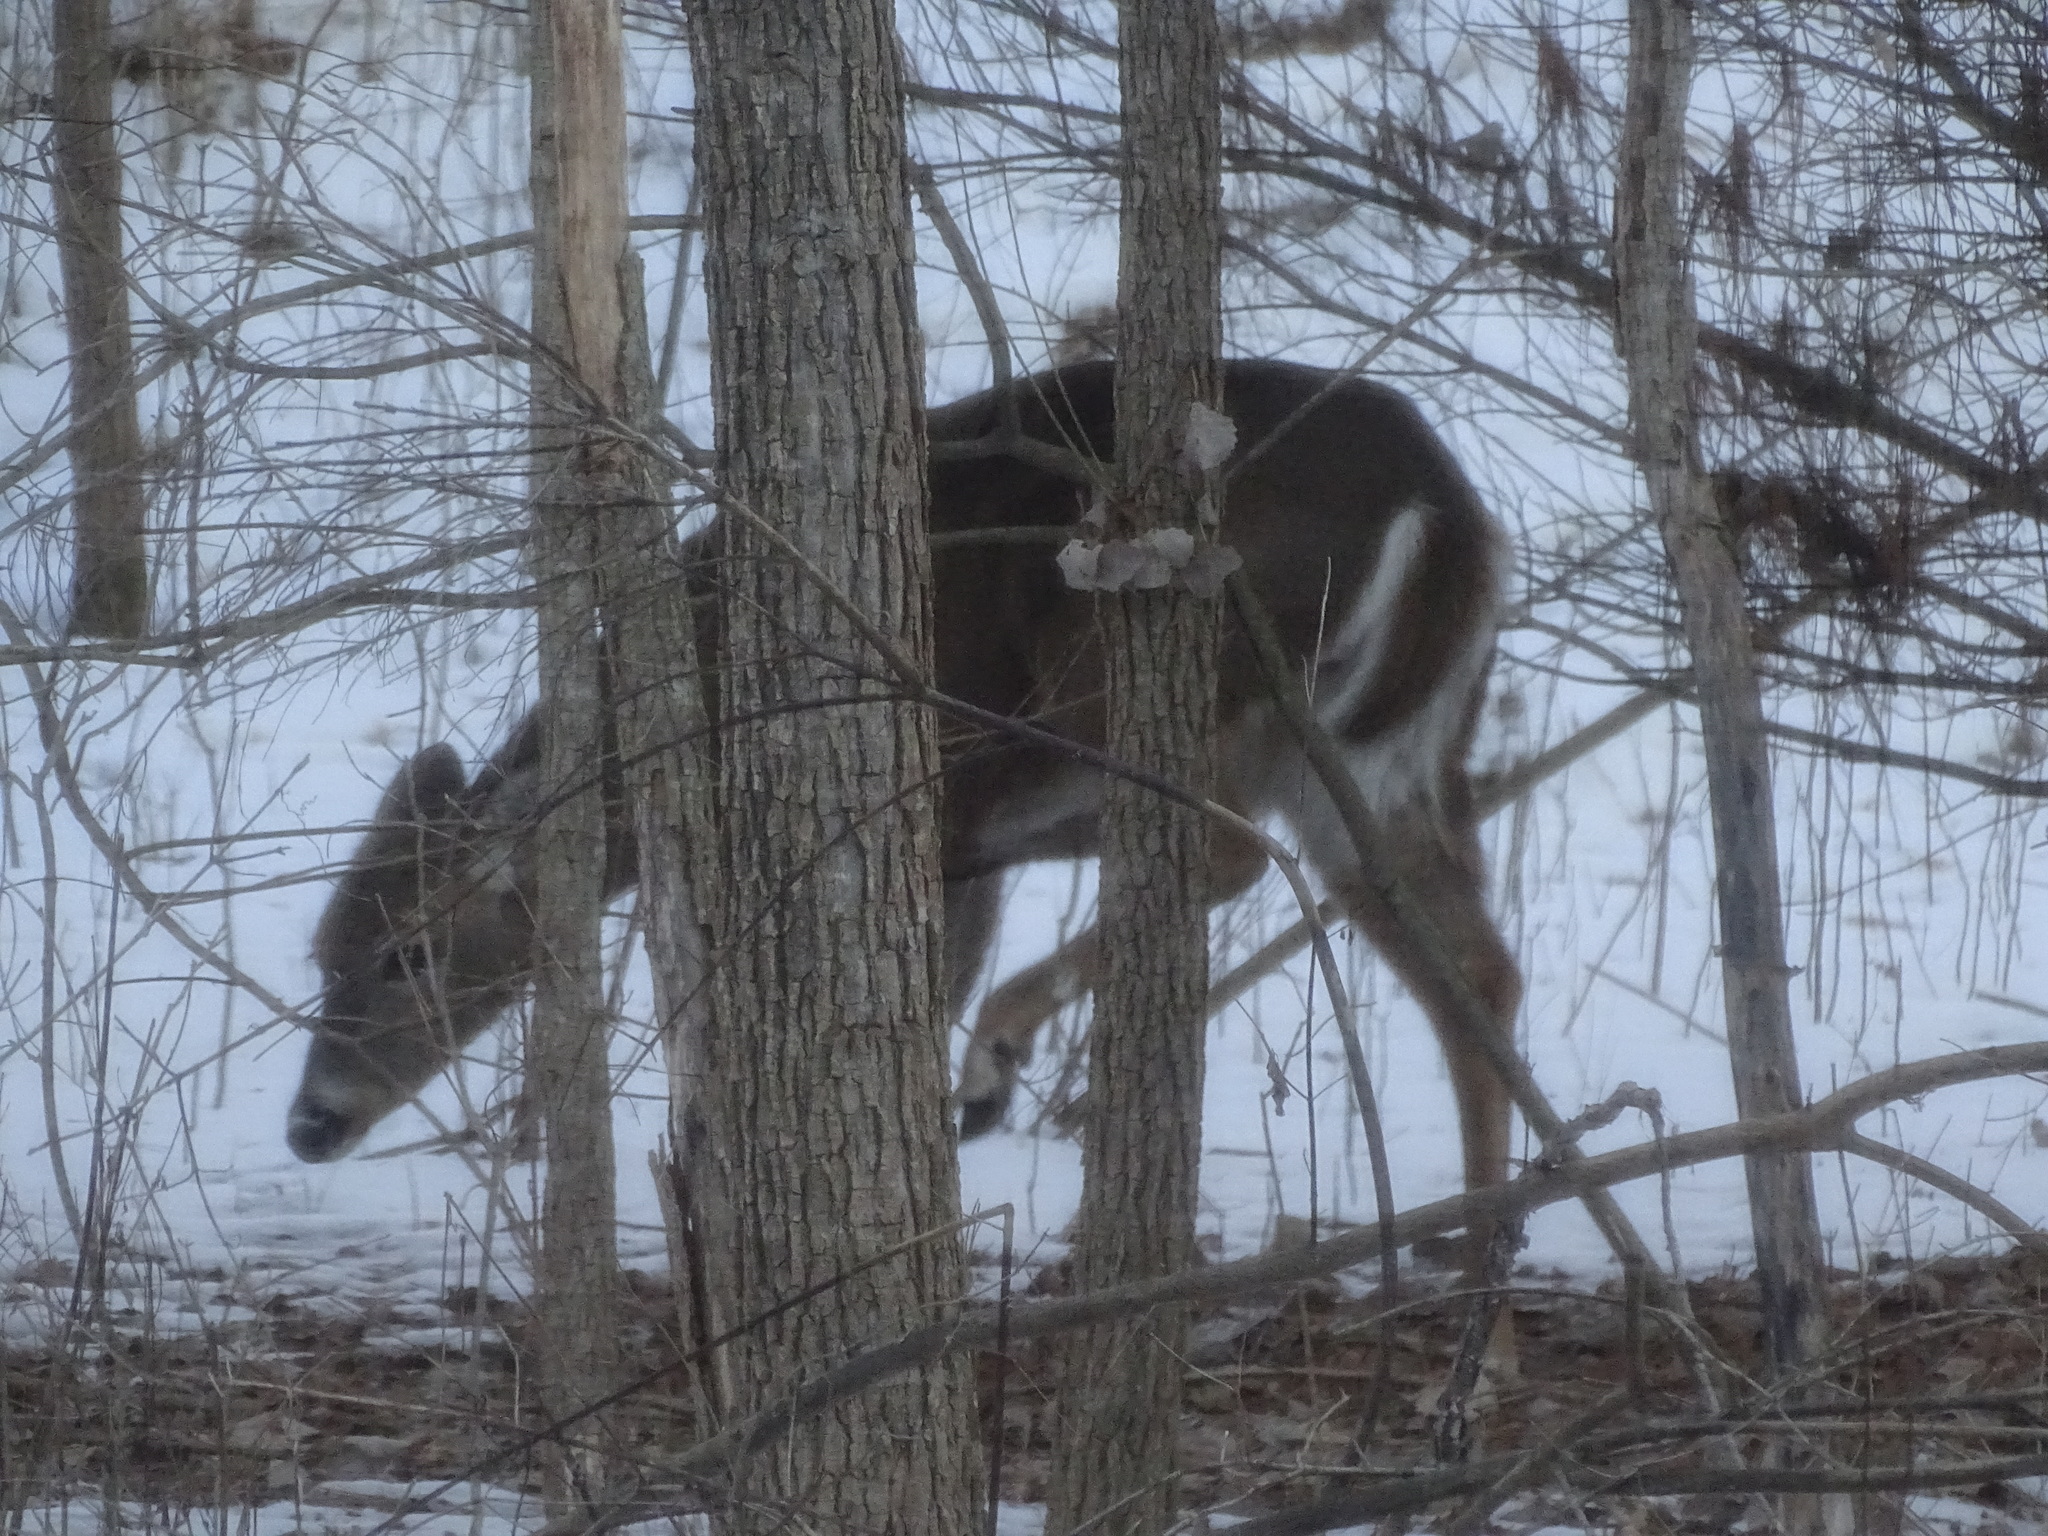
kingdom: Animalia
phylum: Chordata
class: Mammalia
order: Artiodactyla
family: Cervidae
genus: Odocoileus
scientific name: Odocoileus virginianus
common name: White-tailed deer
